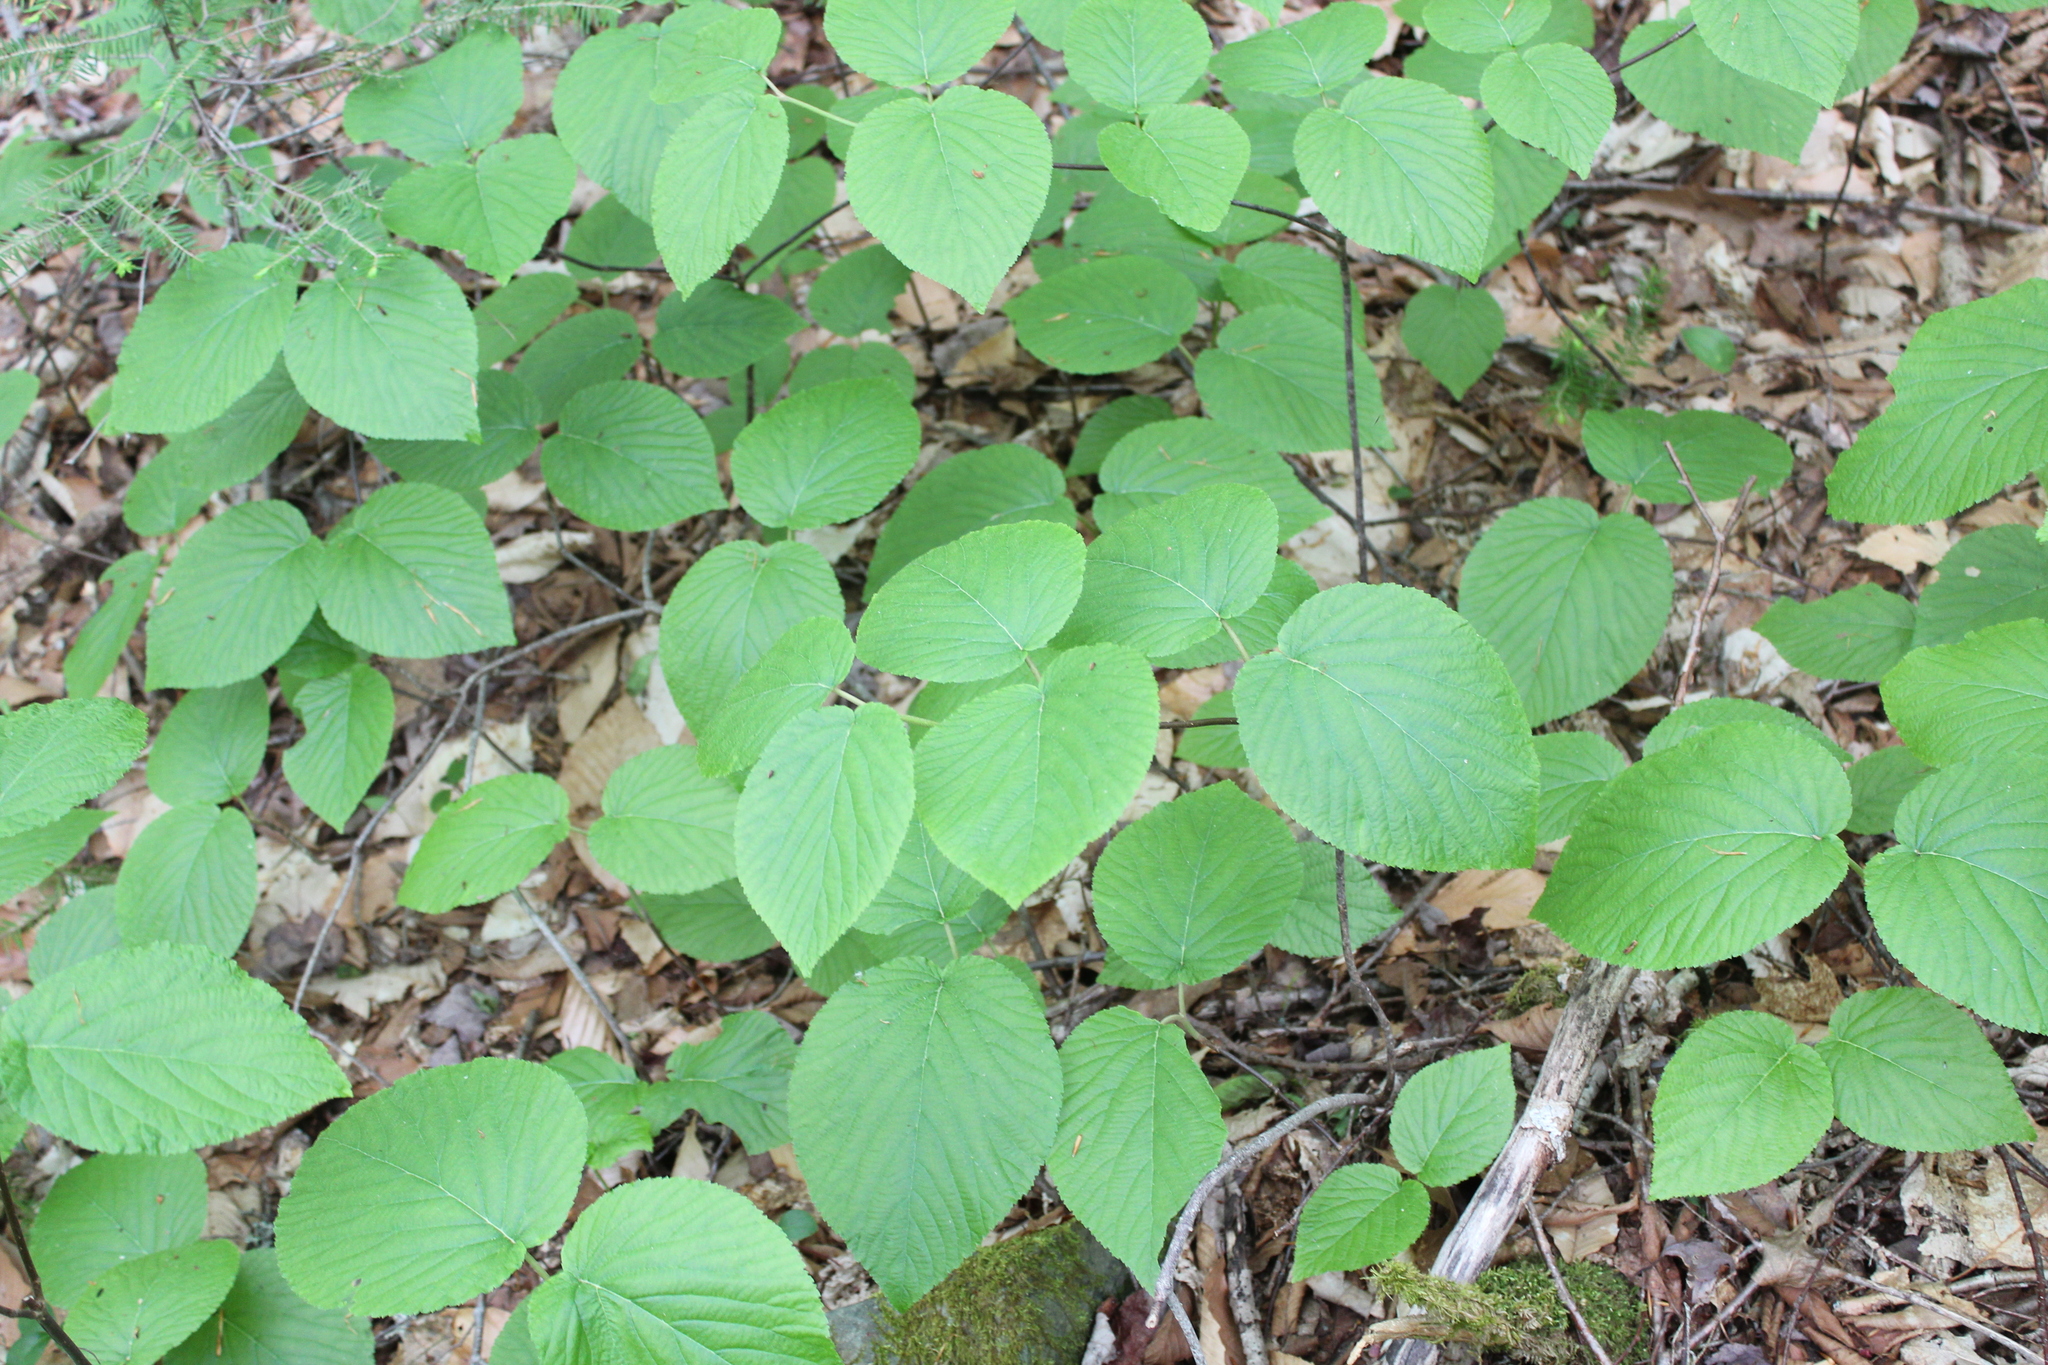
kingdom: Plantae
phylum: Tracheophyta
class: Magnoliopsida
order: Dipsacales
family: Viburnaceae
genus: Viburnum
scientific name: Viburnum lantanoides
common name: Hobblebush
